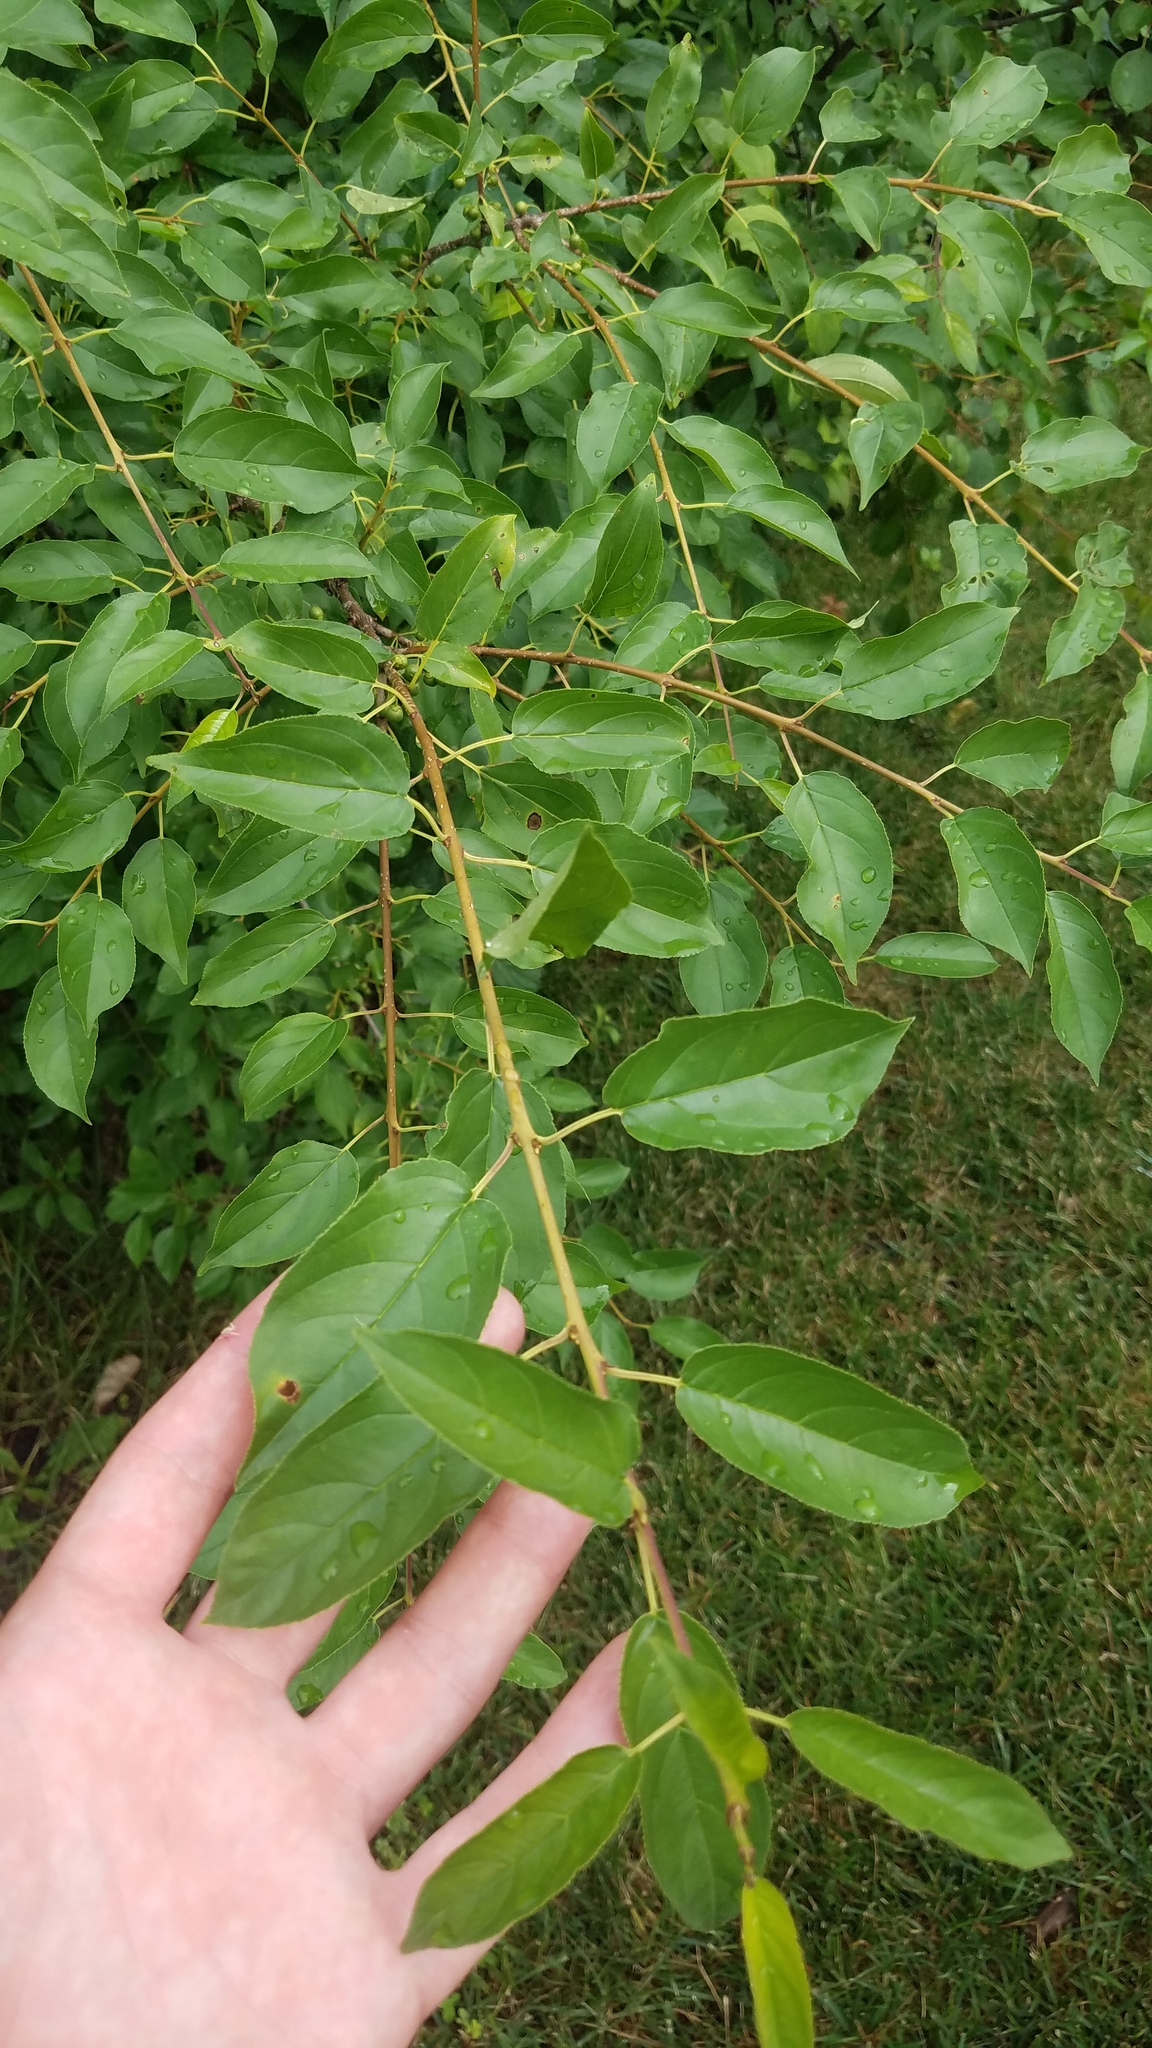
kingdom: Plantae
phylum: Tracheophyta
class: Magnoliopsida
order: Rosales
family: Rhamnaceae
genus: Rhamnus
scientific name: Rhamnus cathartica
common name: Common buckthorn
